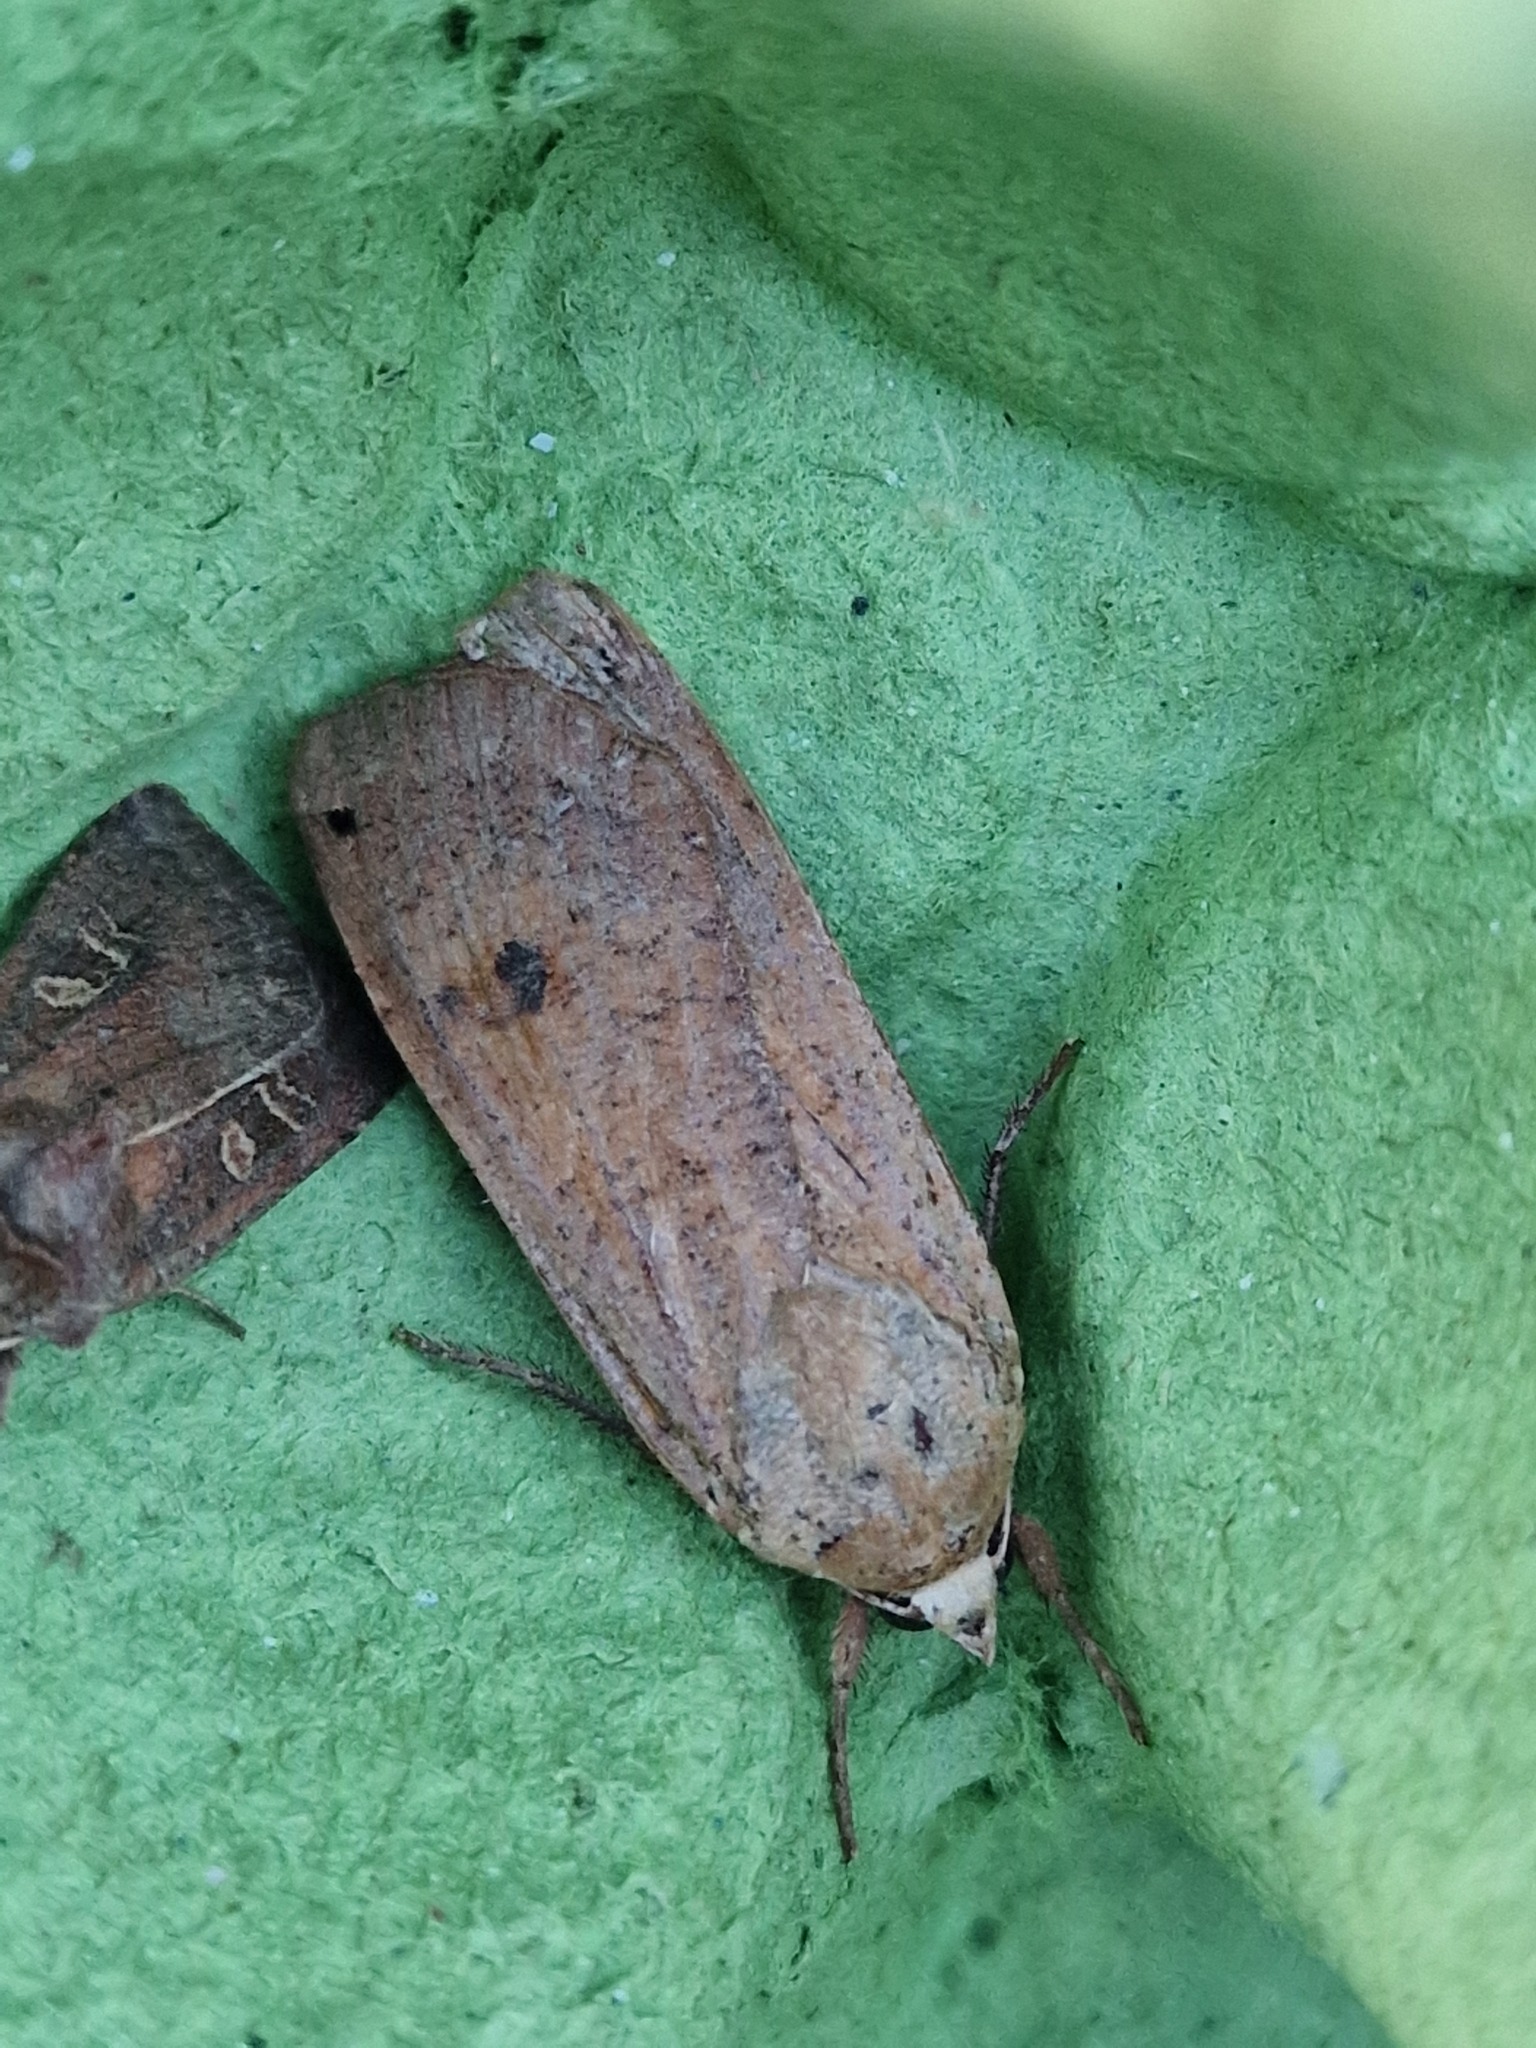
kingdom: Animalia
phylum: Arthropoda
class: Insecta
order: Lepidoptera
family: Noctuidae
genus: Noctua
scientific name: Noctua pronuba
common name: Large yellow underwing
